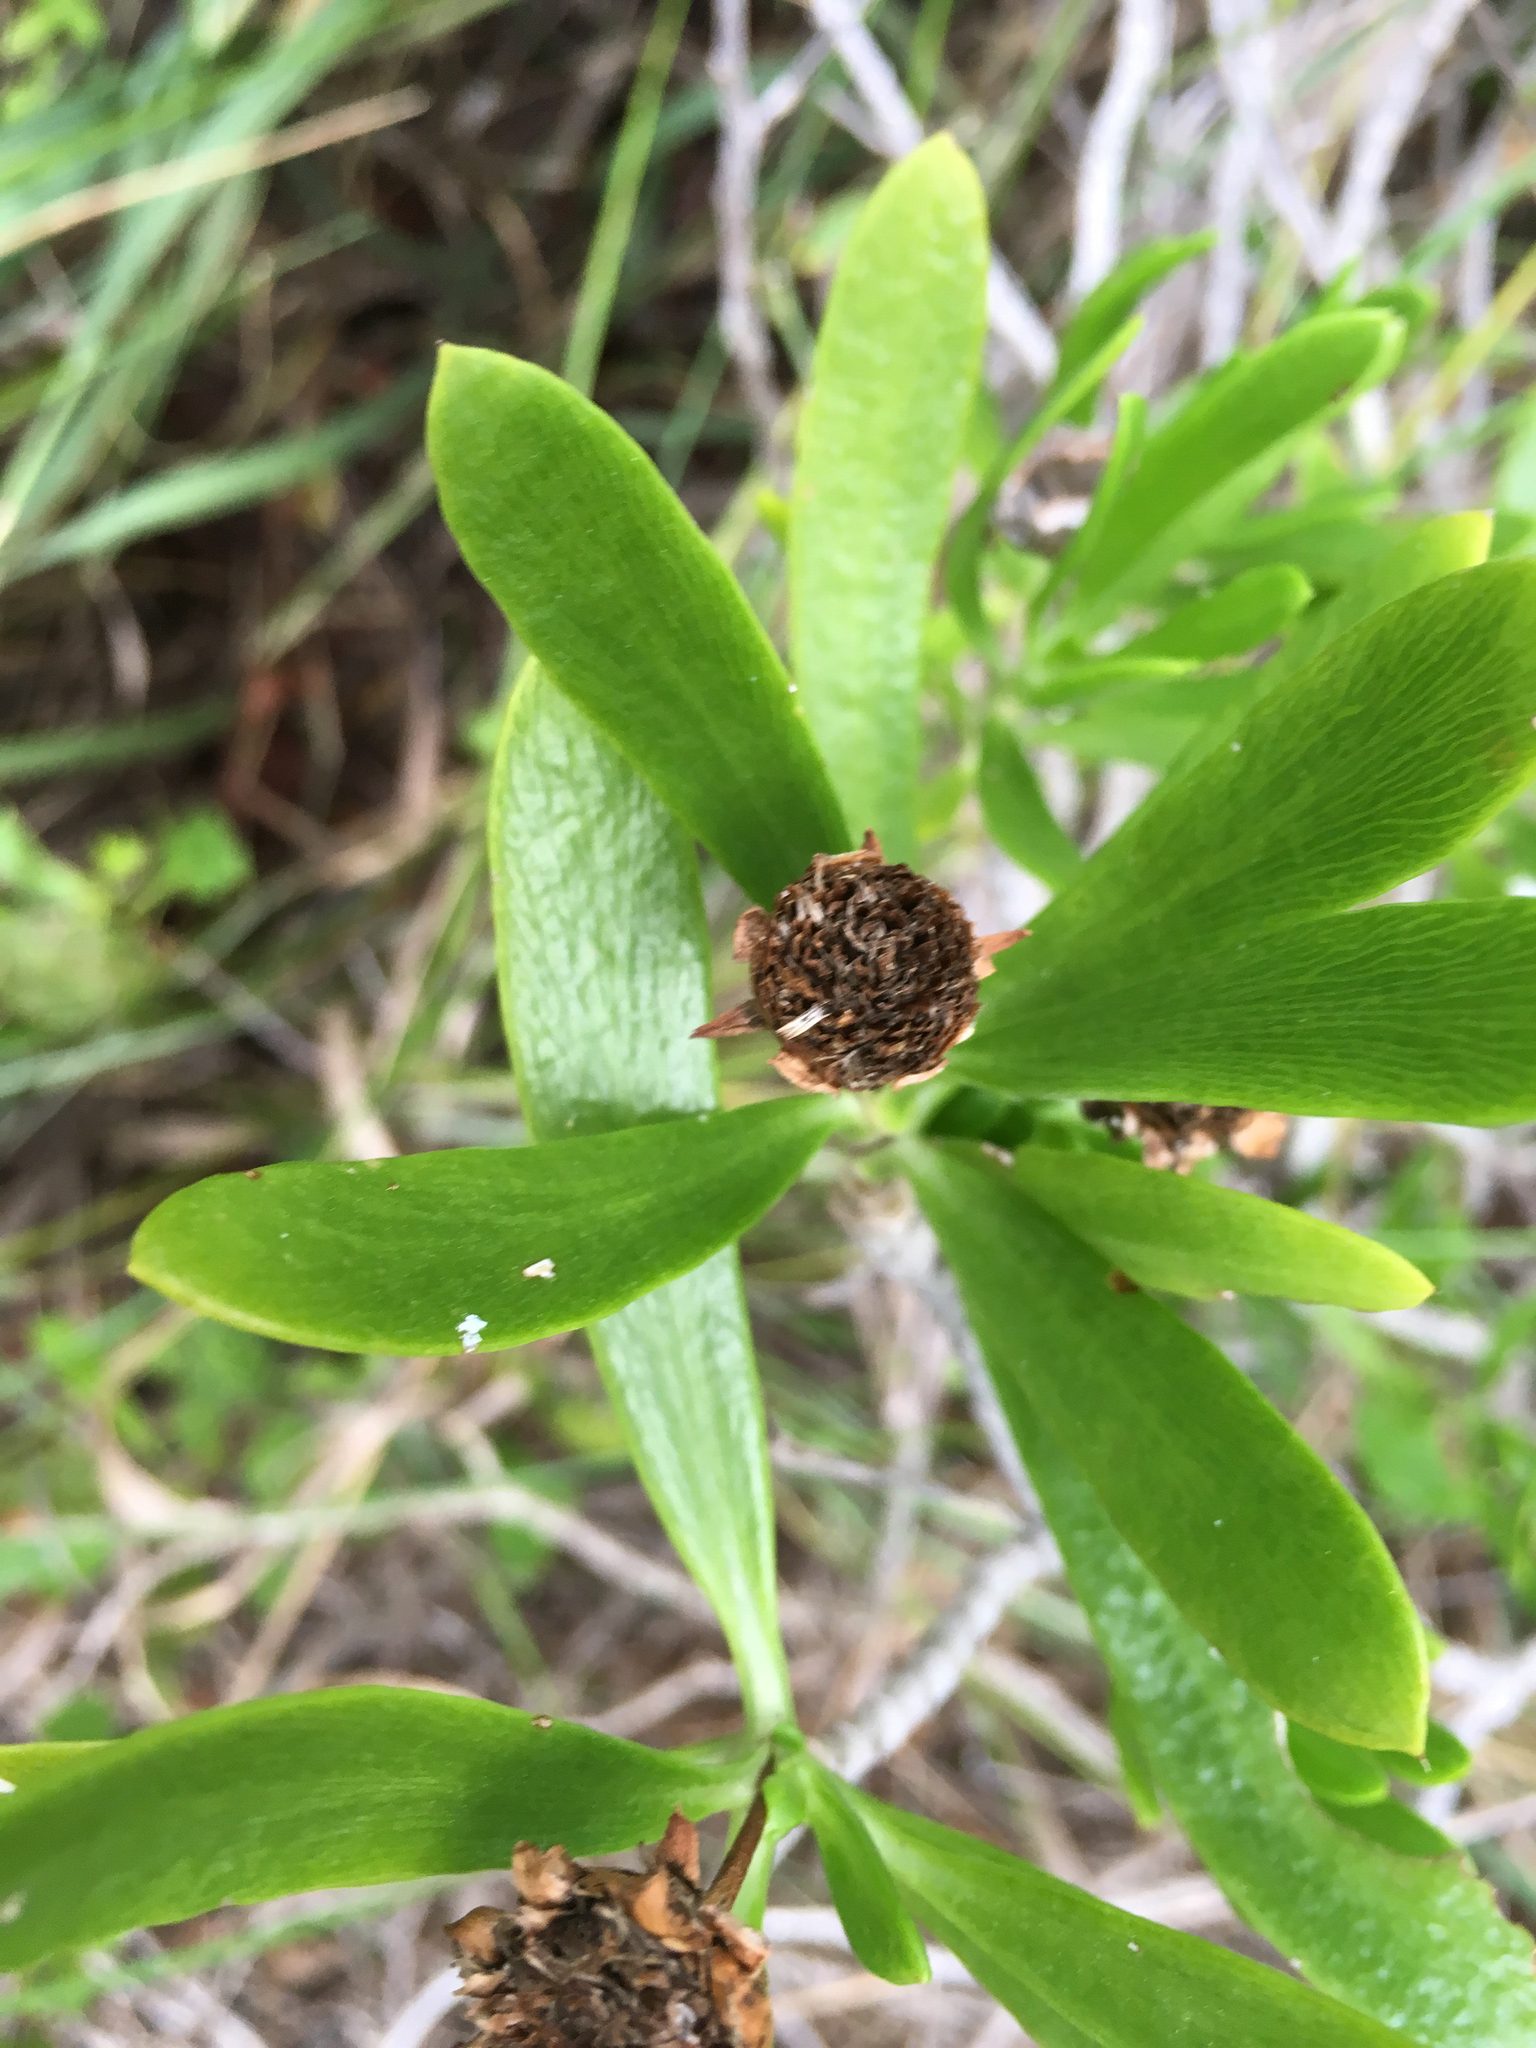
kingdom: Plantae
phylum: Tracheophyta
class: Magnoliopsida
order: Asterales
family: Asteraceae
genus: Borrichia
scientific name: Borrichia arborescens
